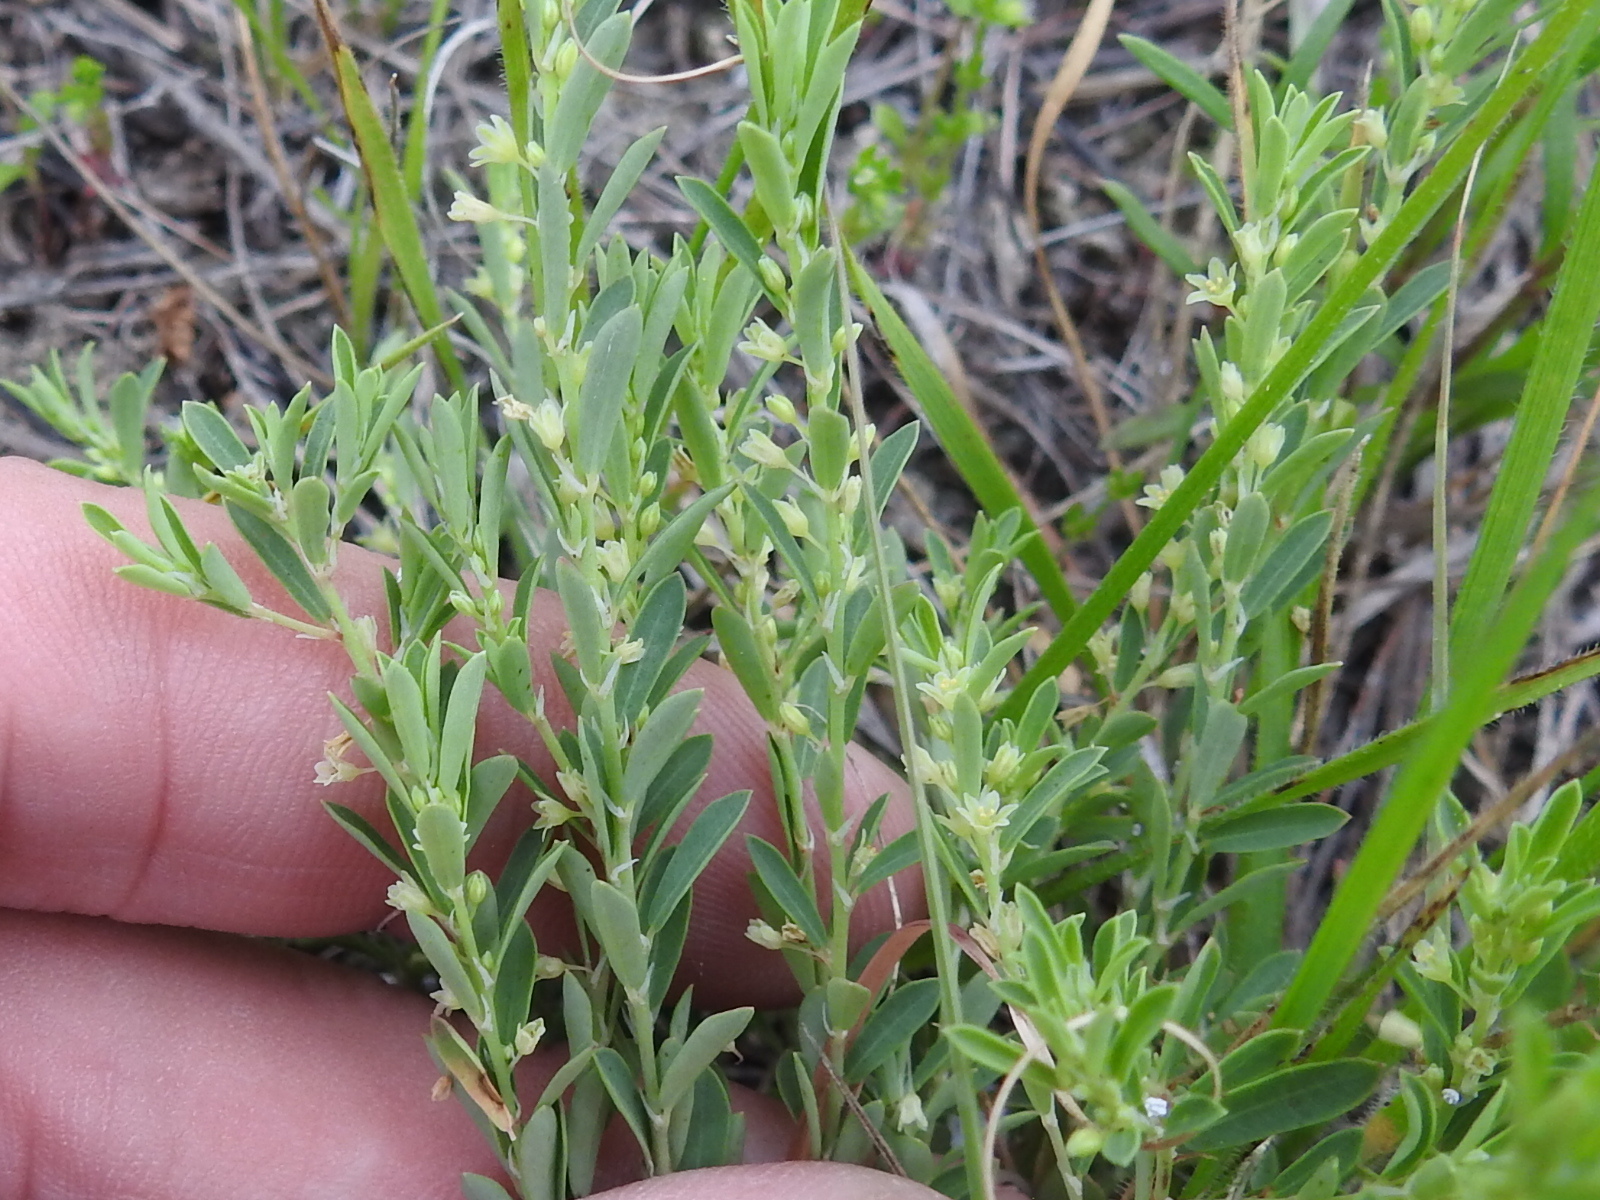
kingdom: Plantae
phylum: Tracheophyta
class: Magnoliopsida
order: Malpighiales
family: Phyllanthaceae
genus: Phyllanthus
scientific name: Phyllanthus polygonoides
